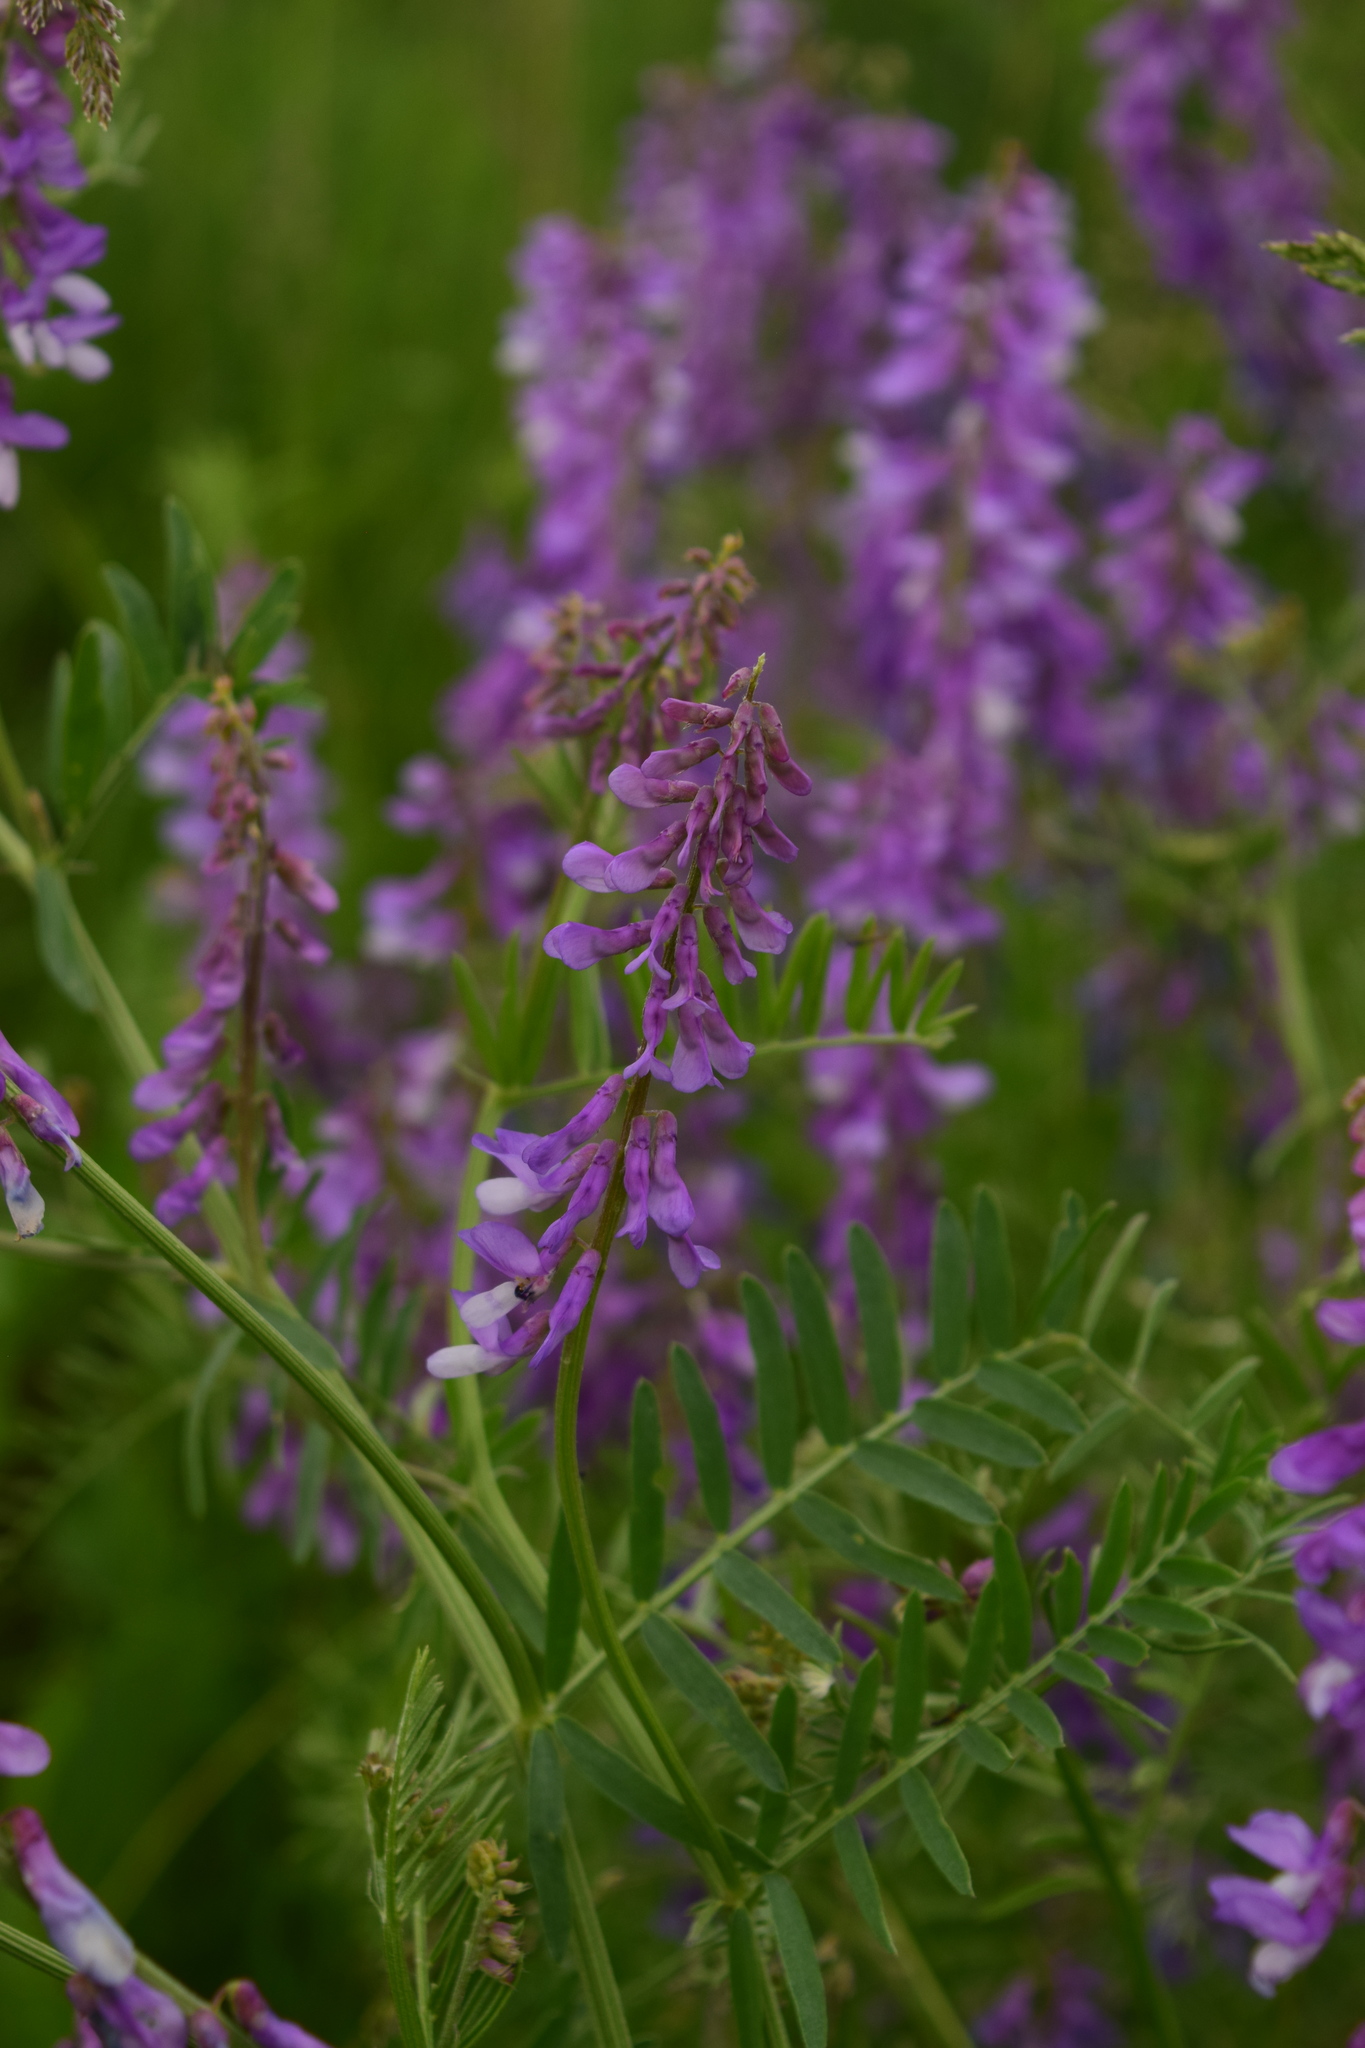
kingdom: Plantae
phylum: Tracheophyta
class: Magnoliopsida
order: Fabales
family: Fabaceae
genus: Vicia
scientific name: Vicia tenuifolia
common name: Fine-leaved vetch
